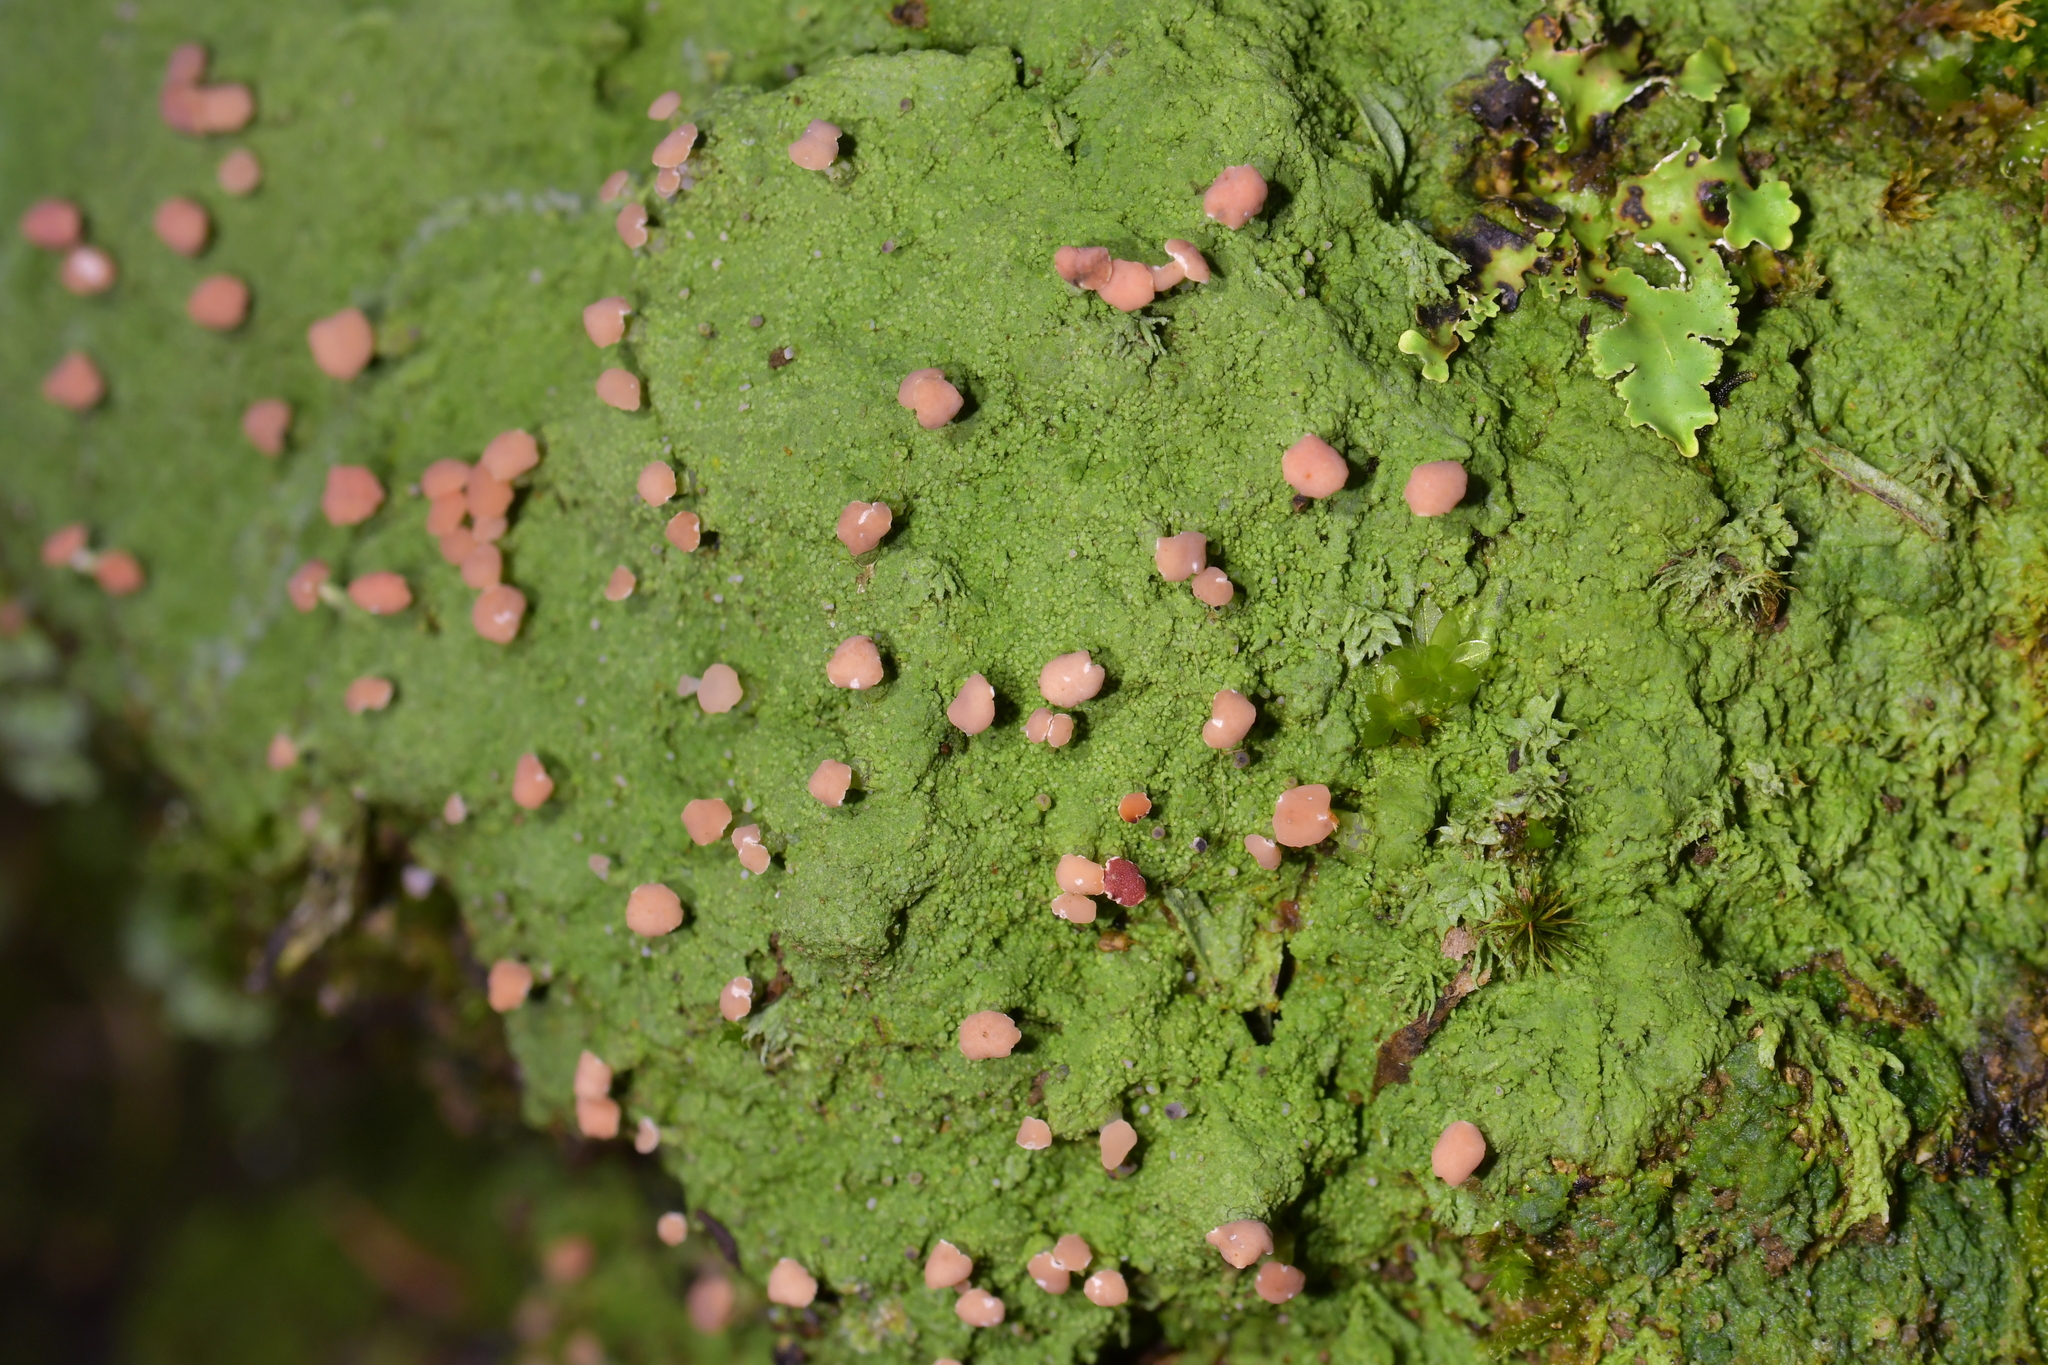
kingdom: Fungi
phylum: Ascomycota
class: Lecanoromycetes
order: Baeomycetales
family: Baeomycetaceae
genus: Baeomyces
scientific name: Baeomyces heteromorphus
